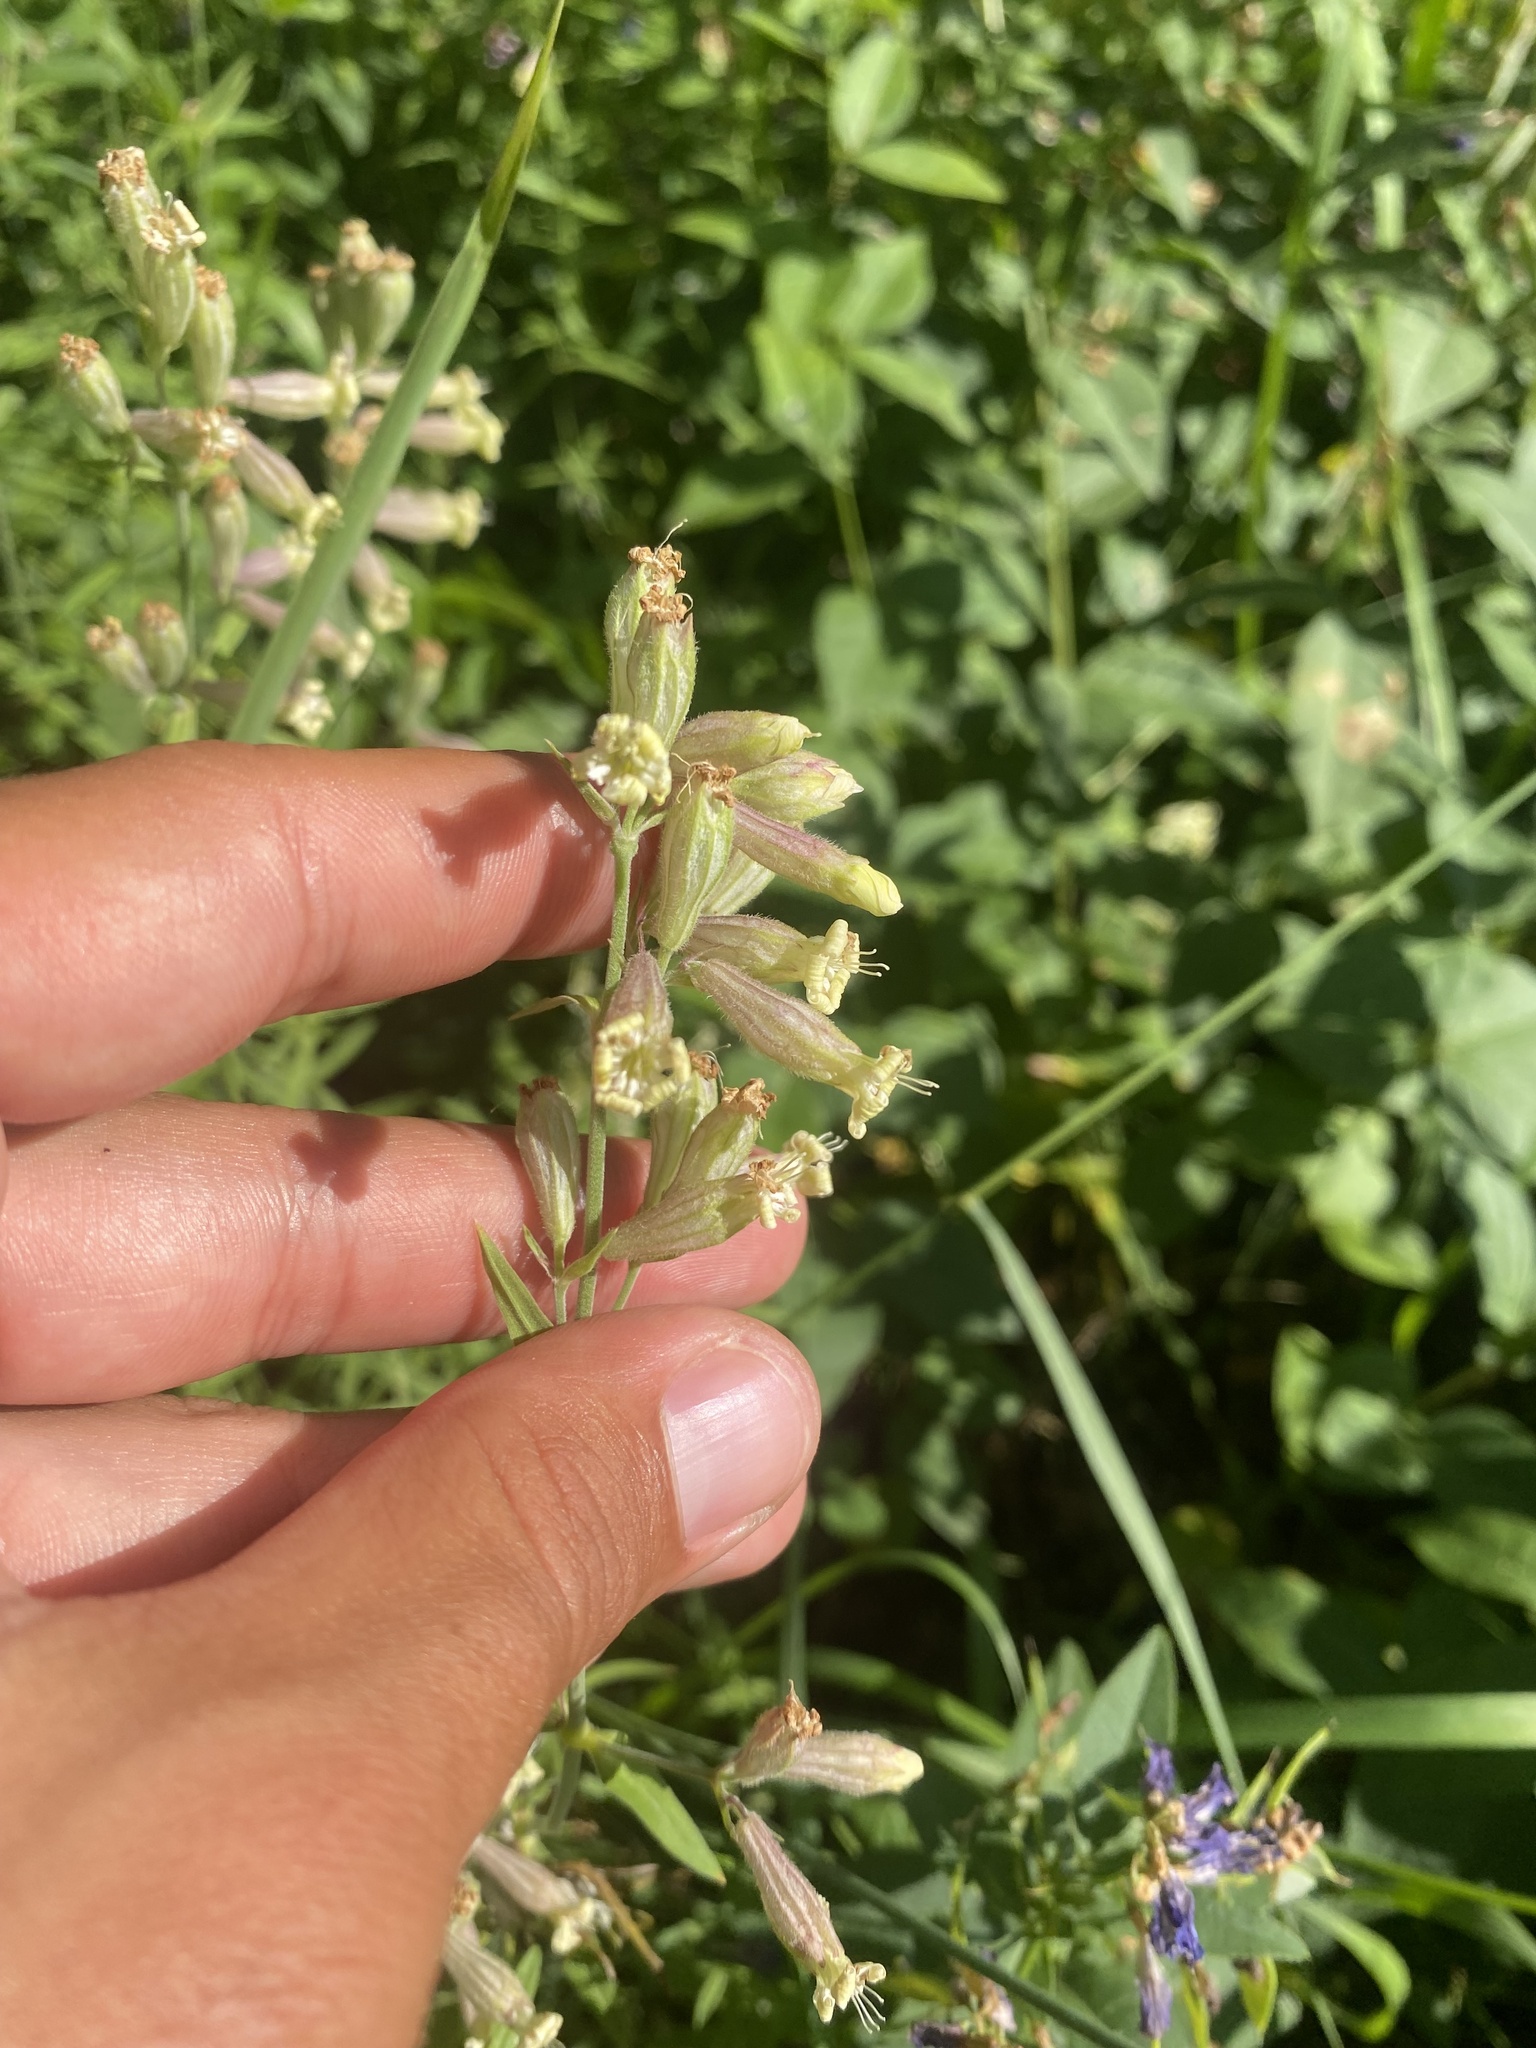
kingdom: Plantae
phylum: Tracheophyta
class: Magnoliopsida
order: Caryophyllales
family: Caryophyllaceae
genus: Silene
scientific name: Silene amoena
